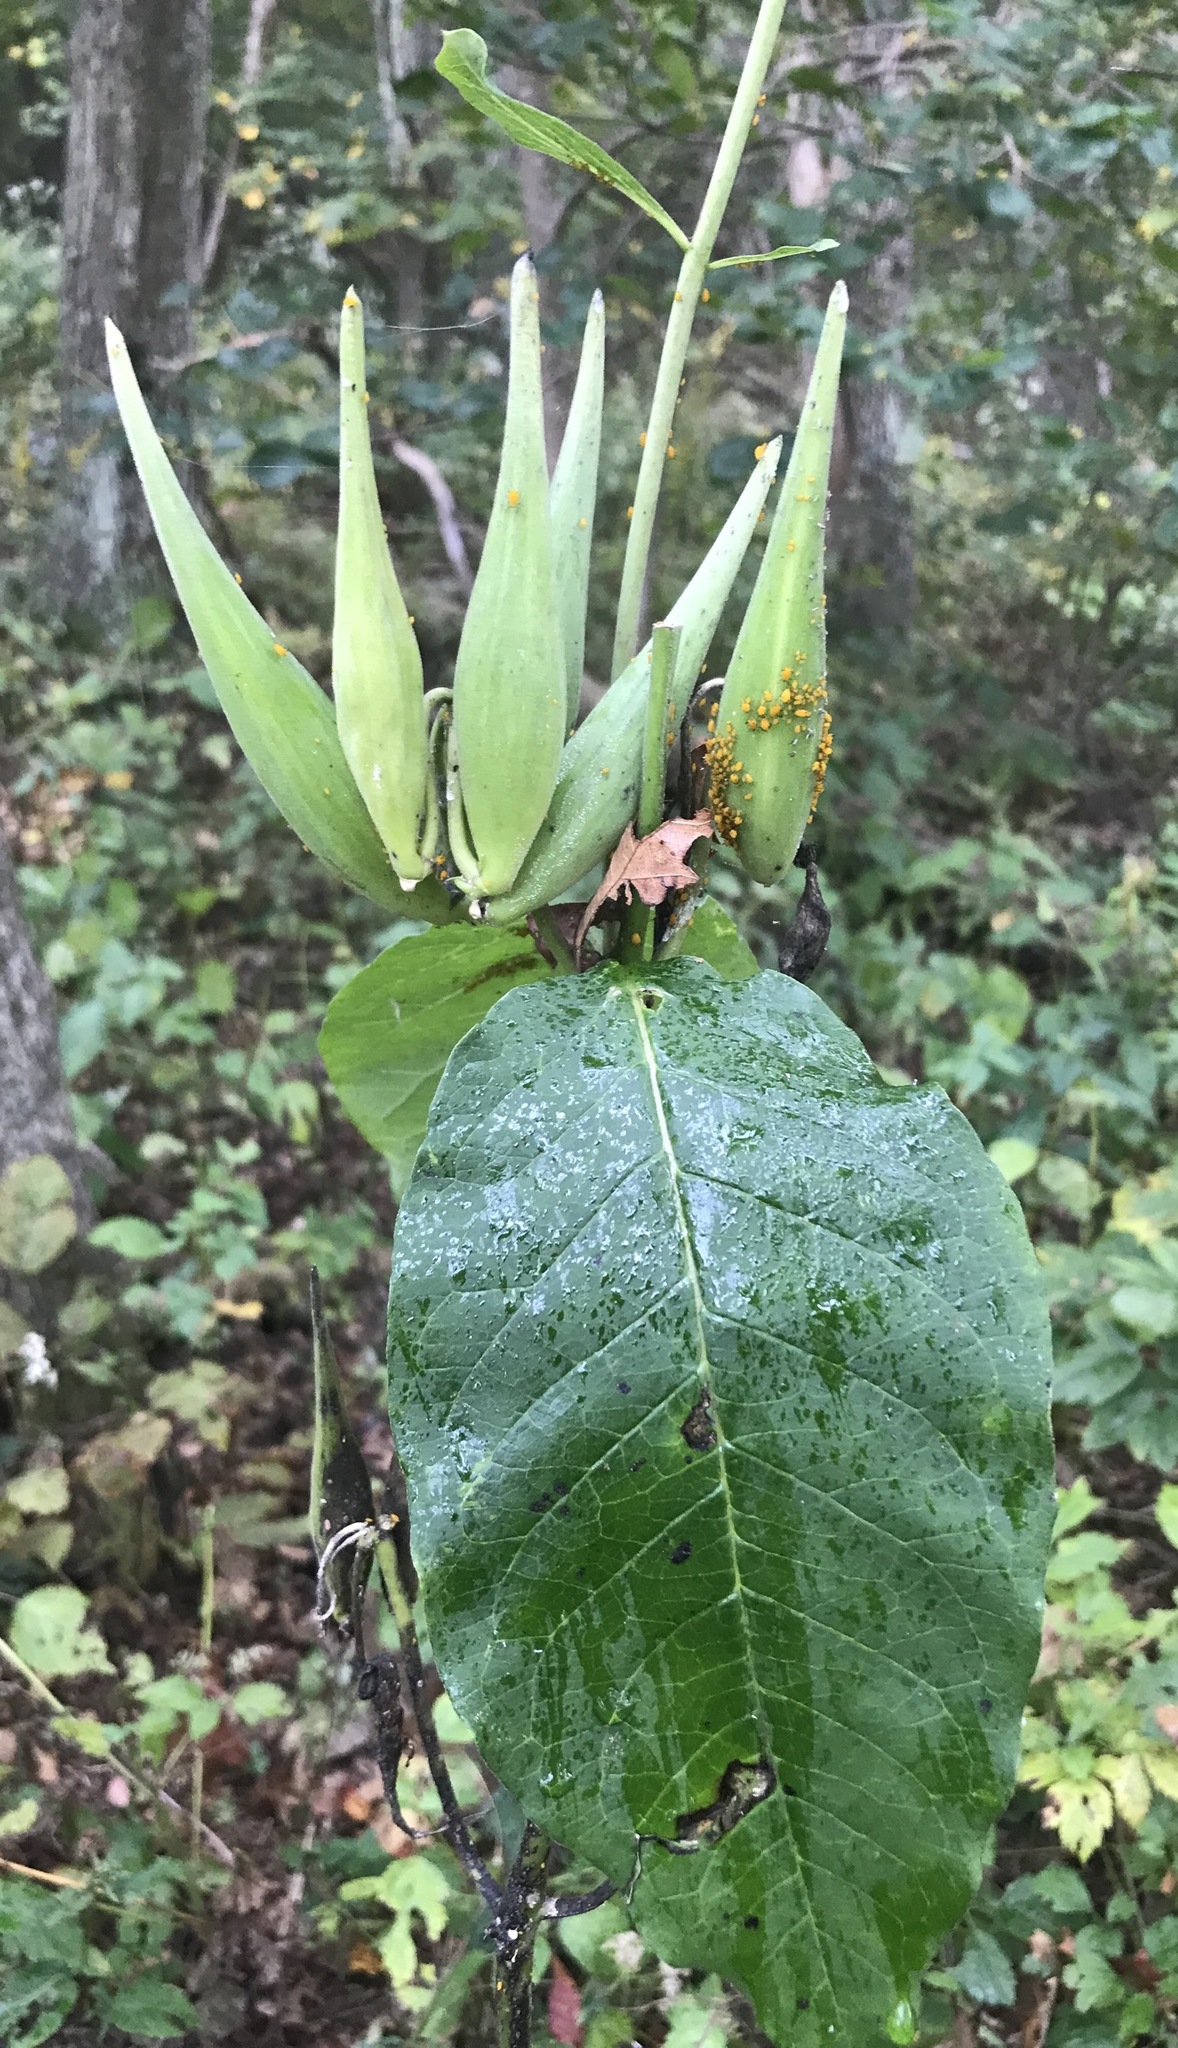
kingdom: Plantae
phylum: Tracheophyta
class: Magnoliopsida
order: Gentianales
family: Apocynaceae
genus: Asclepias
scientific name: Asclepias exaltata
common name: Poke milkweed
